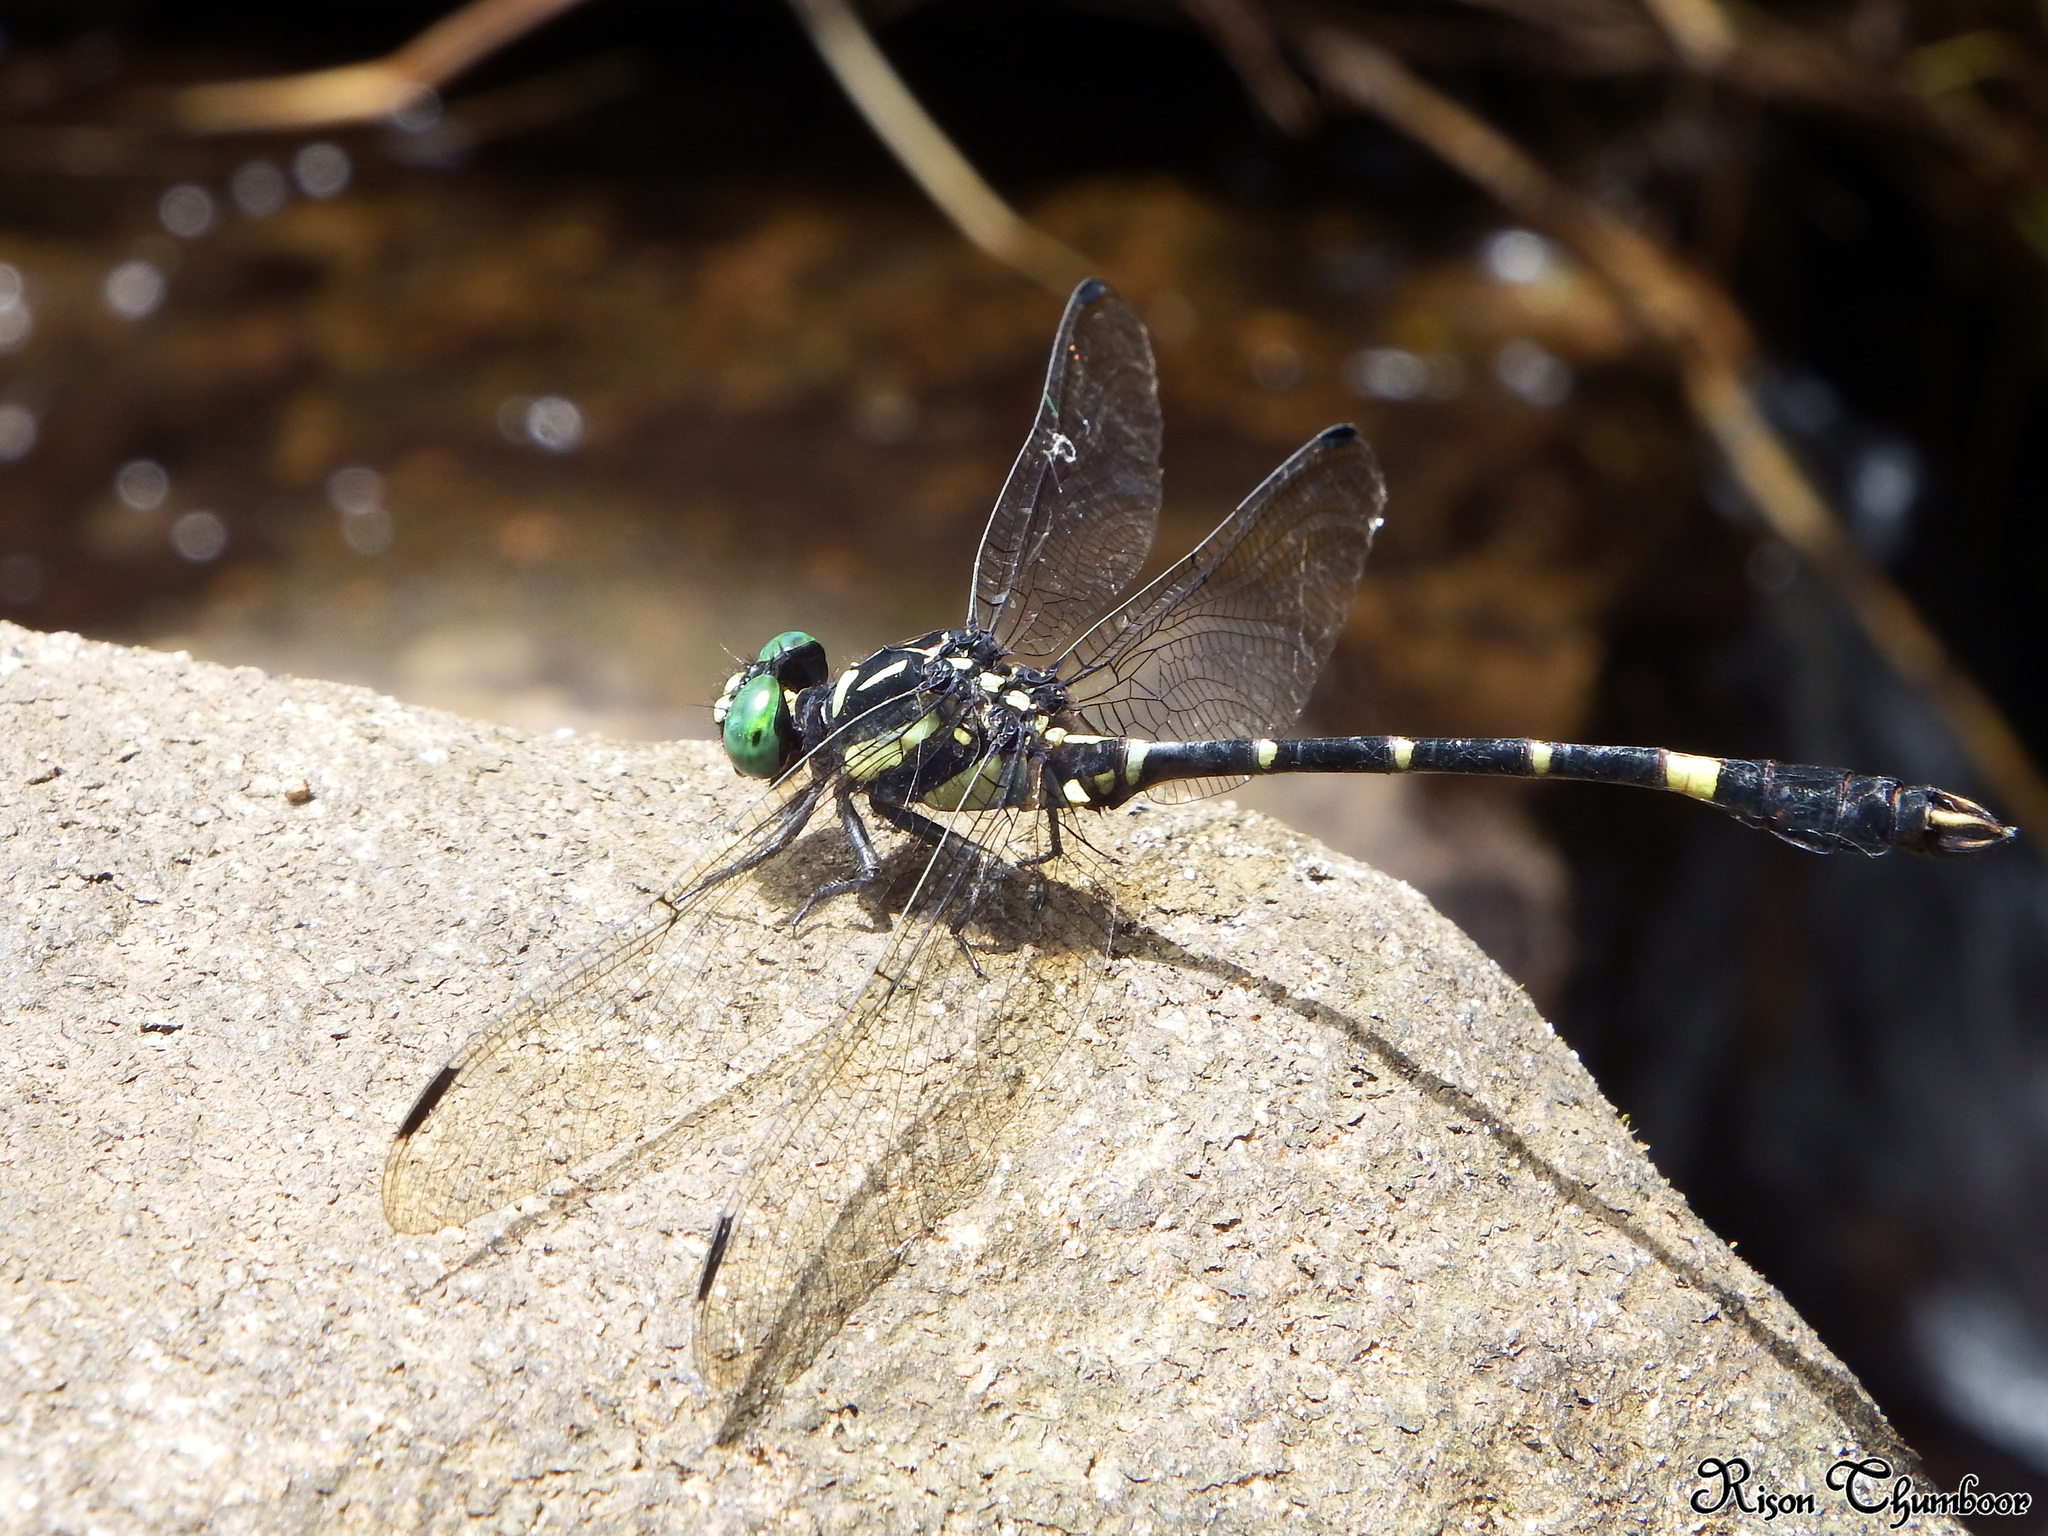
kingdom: Animalia
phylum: Arthropoda
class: Insecta
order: Odonata
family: Gomphidae
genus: Melligomphus
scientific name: Melligomphus acinaces
